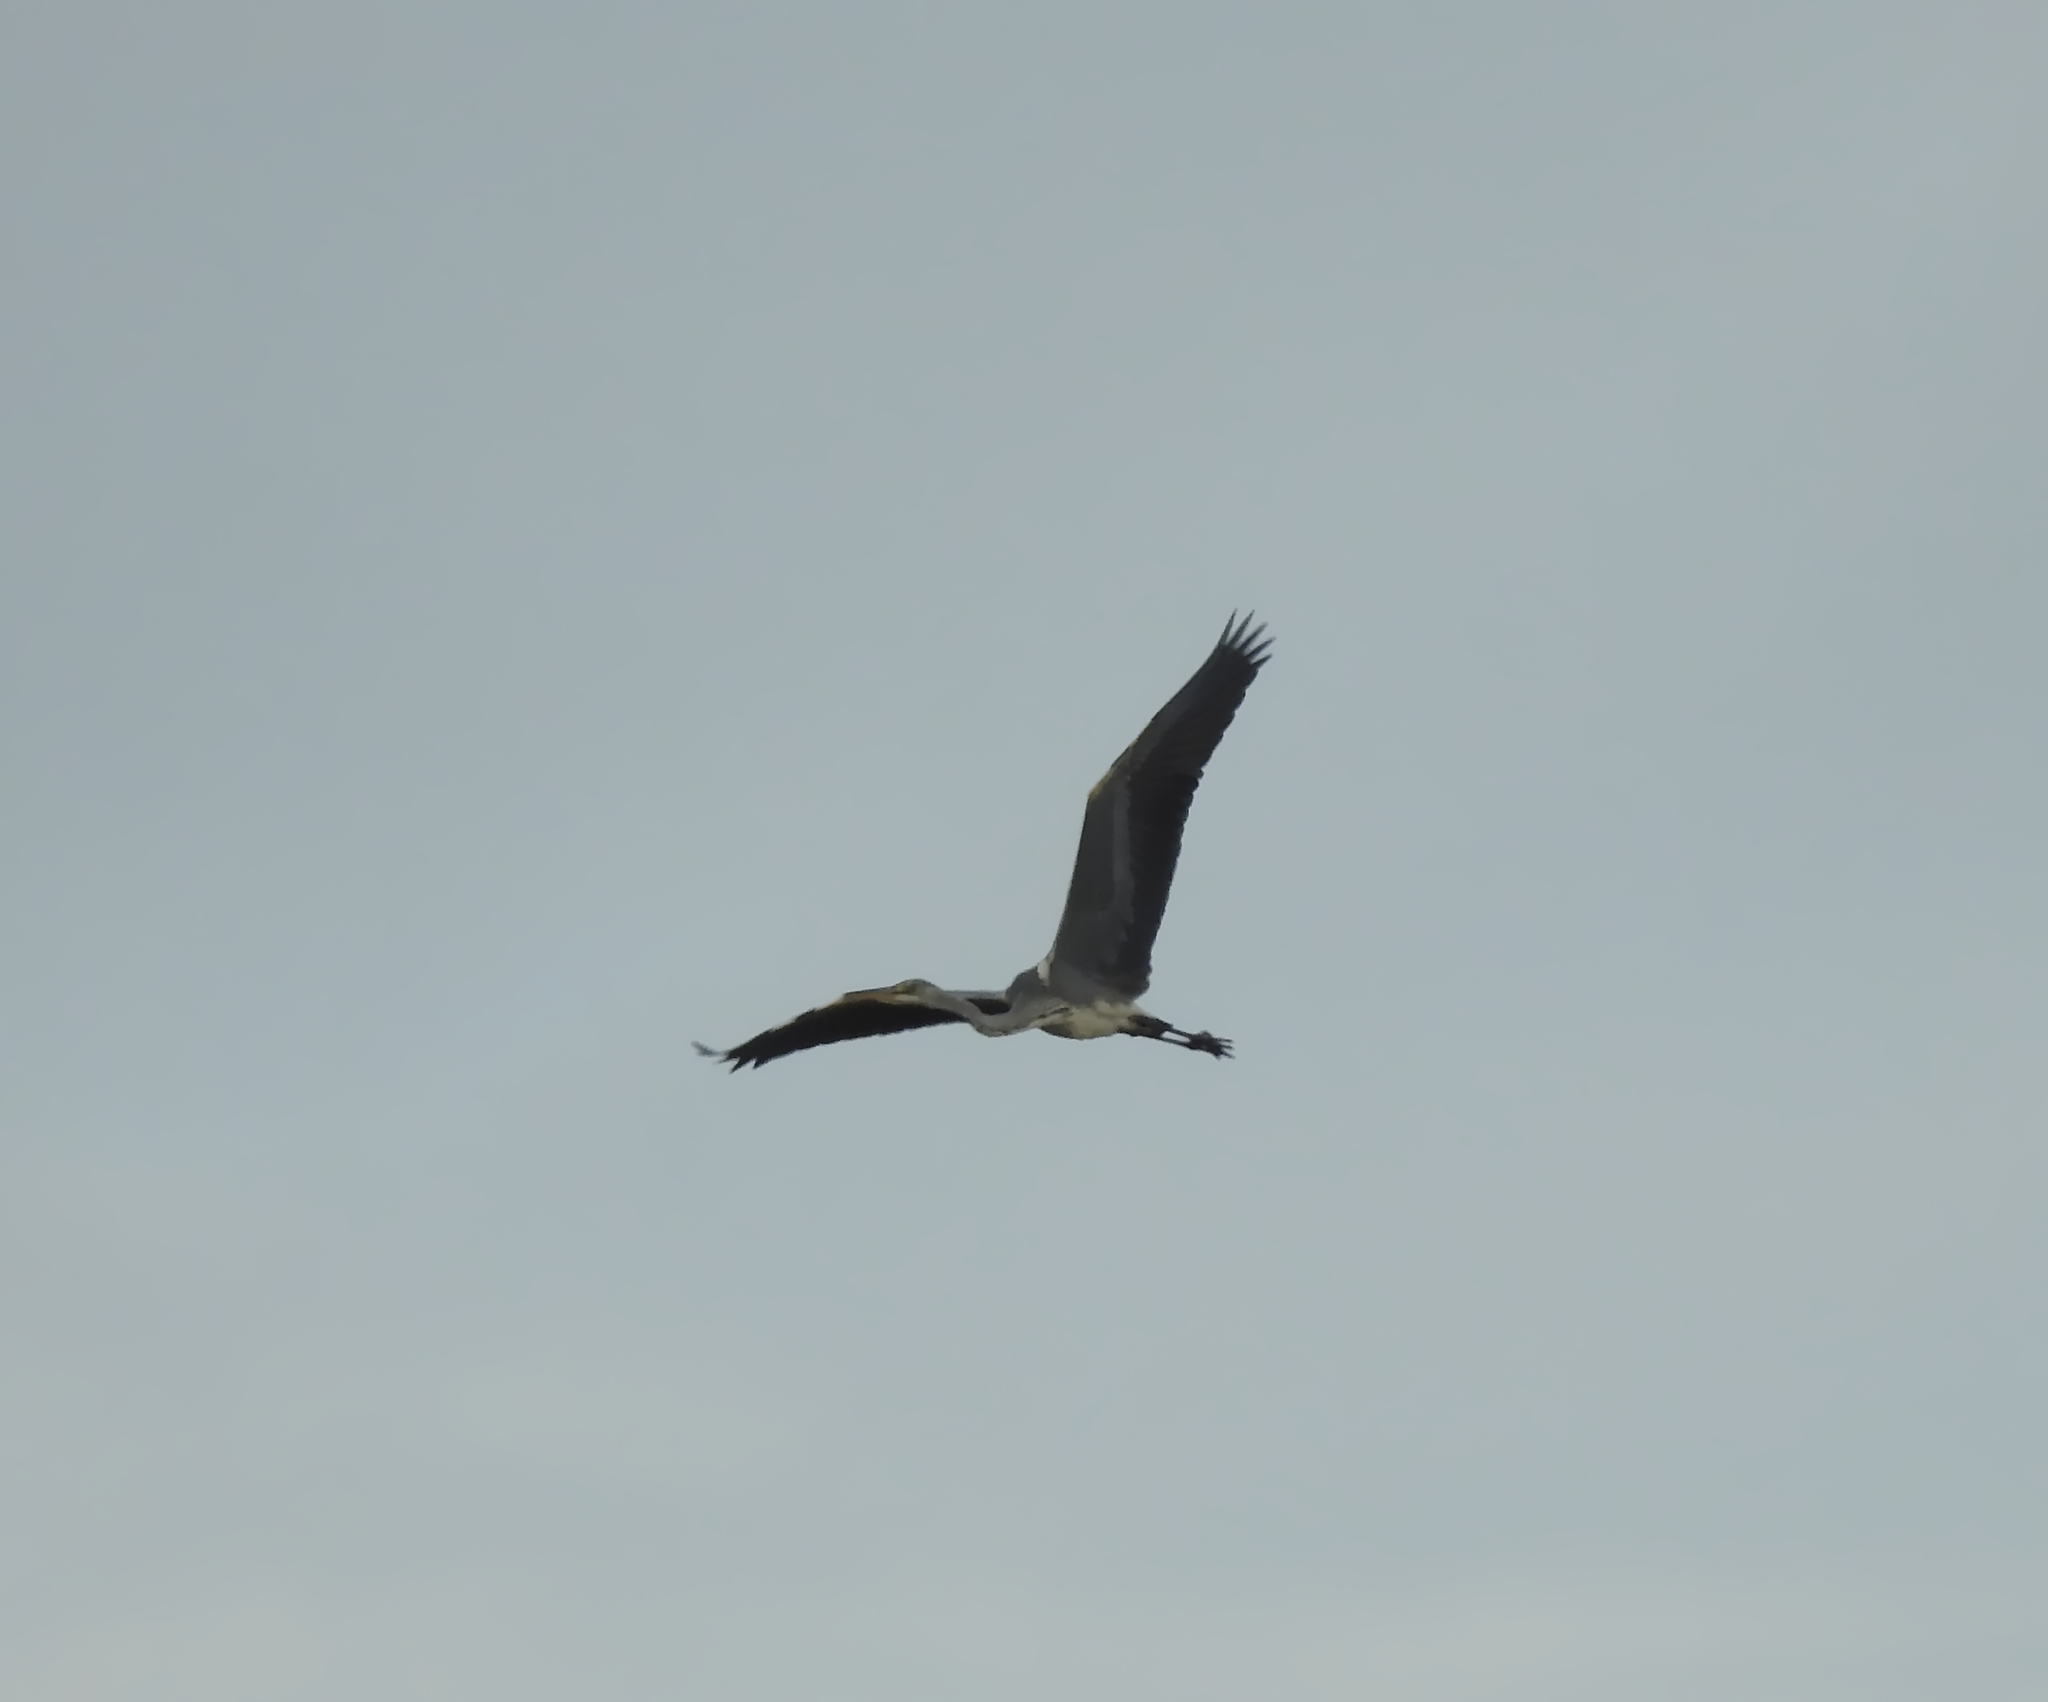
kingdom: Animalia
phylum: Chordata
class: Aves
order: Pelecaniformes
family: Ardeidae
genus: Ardea
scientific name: Ardea cinerea
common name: Grey heron
